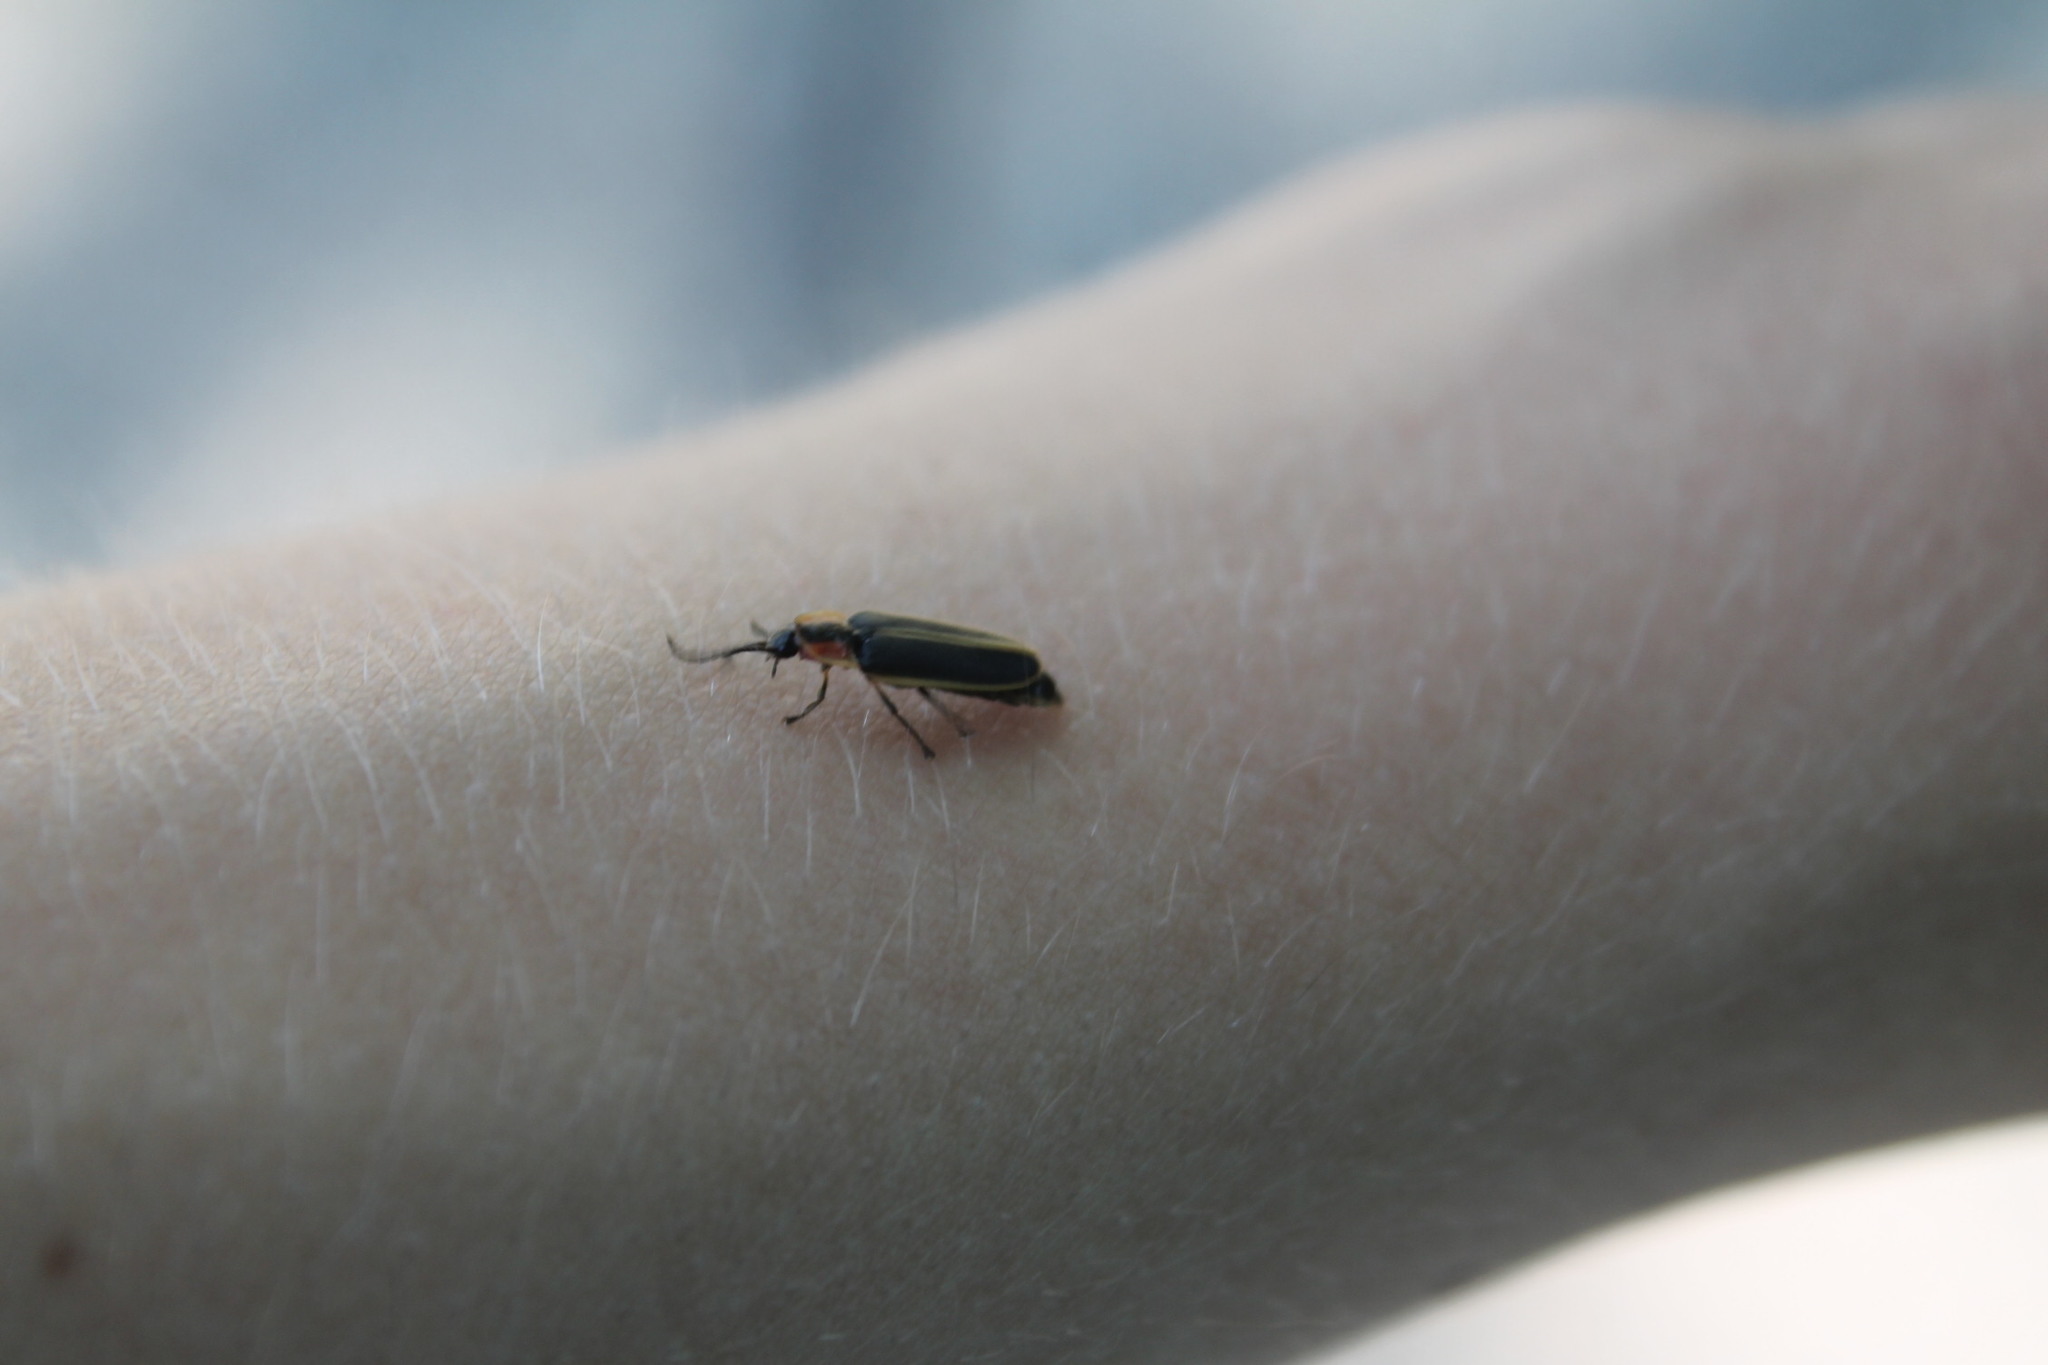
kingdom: Animalia
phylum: Arthropoda
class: Insecta
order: Coleoptera
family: Lampyridae
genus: Photinus
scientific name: Photinus pyralis
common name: Big dipper firefly
